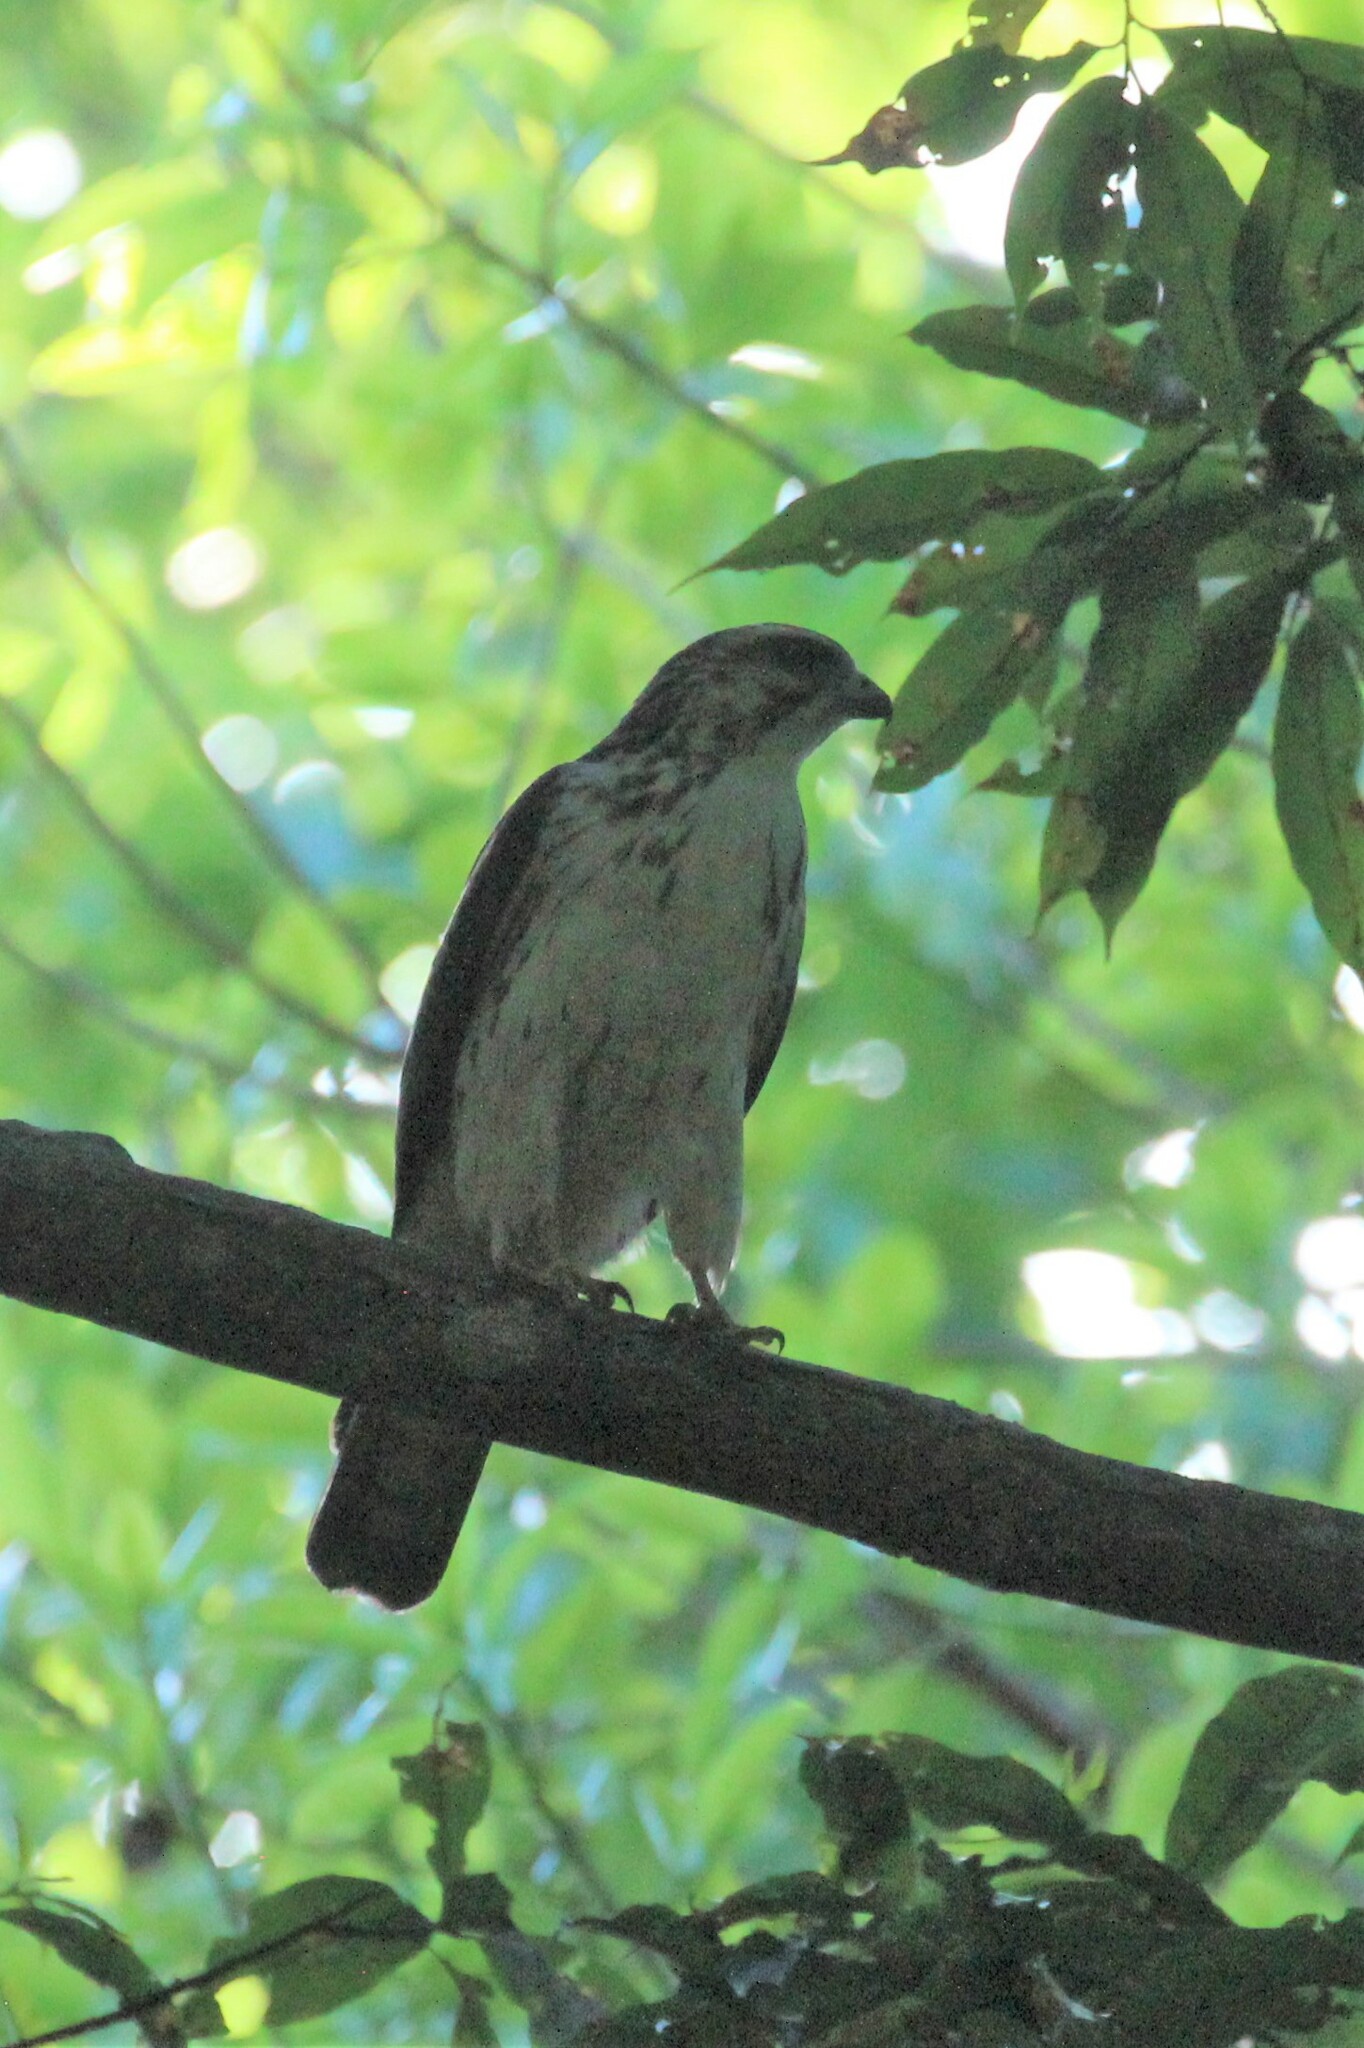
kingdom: Animalia
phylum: Chordata
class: Aves
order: Accipitriformes
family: Accipitridae
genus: Buteo
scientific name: Buteo platypterus
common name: Broad-winged hawk
